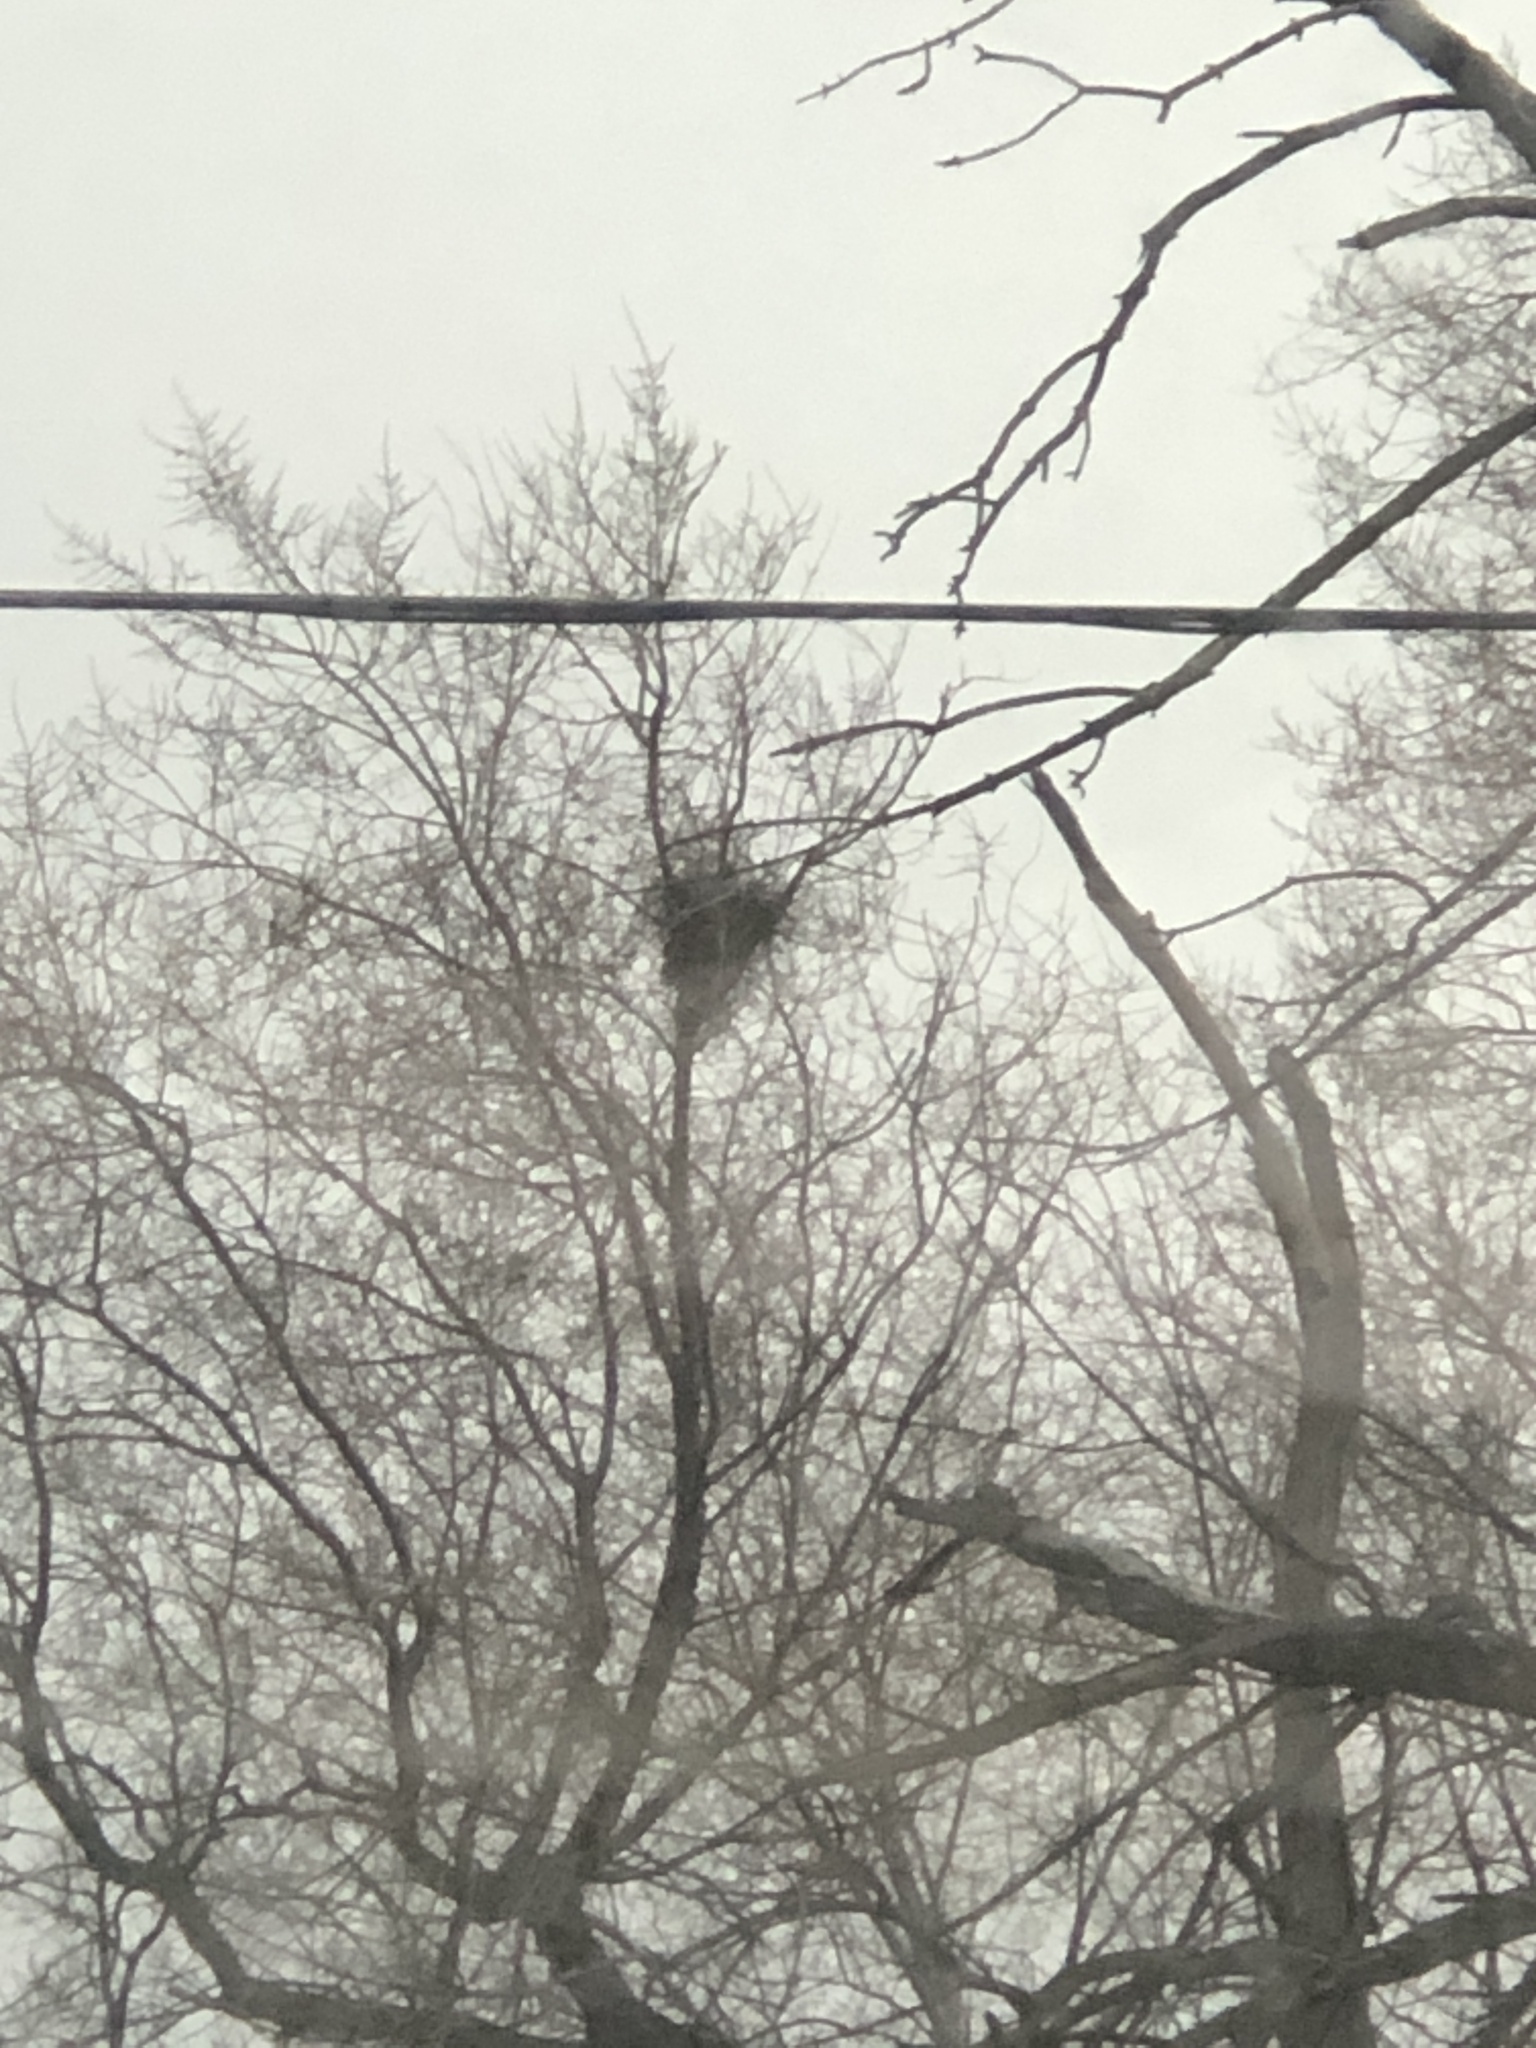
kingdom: Animalia
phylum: Chordata
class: Mammalia
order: Rodentia
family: Sciuridae
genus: Sciurus
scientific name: Sciurus carolinensis
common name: Eastern gray squirrel
